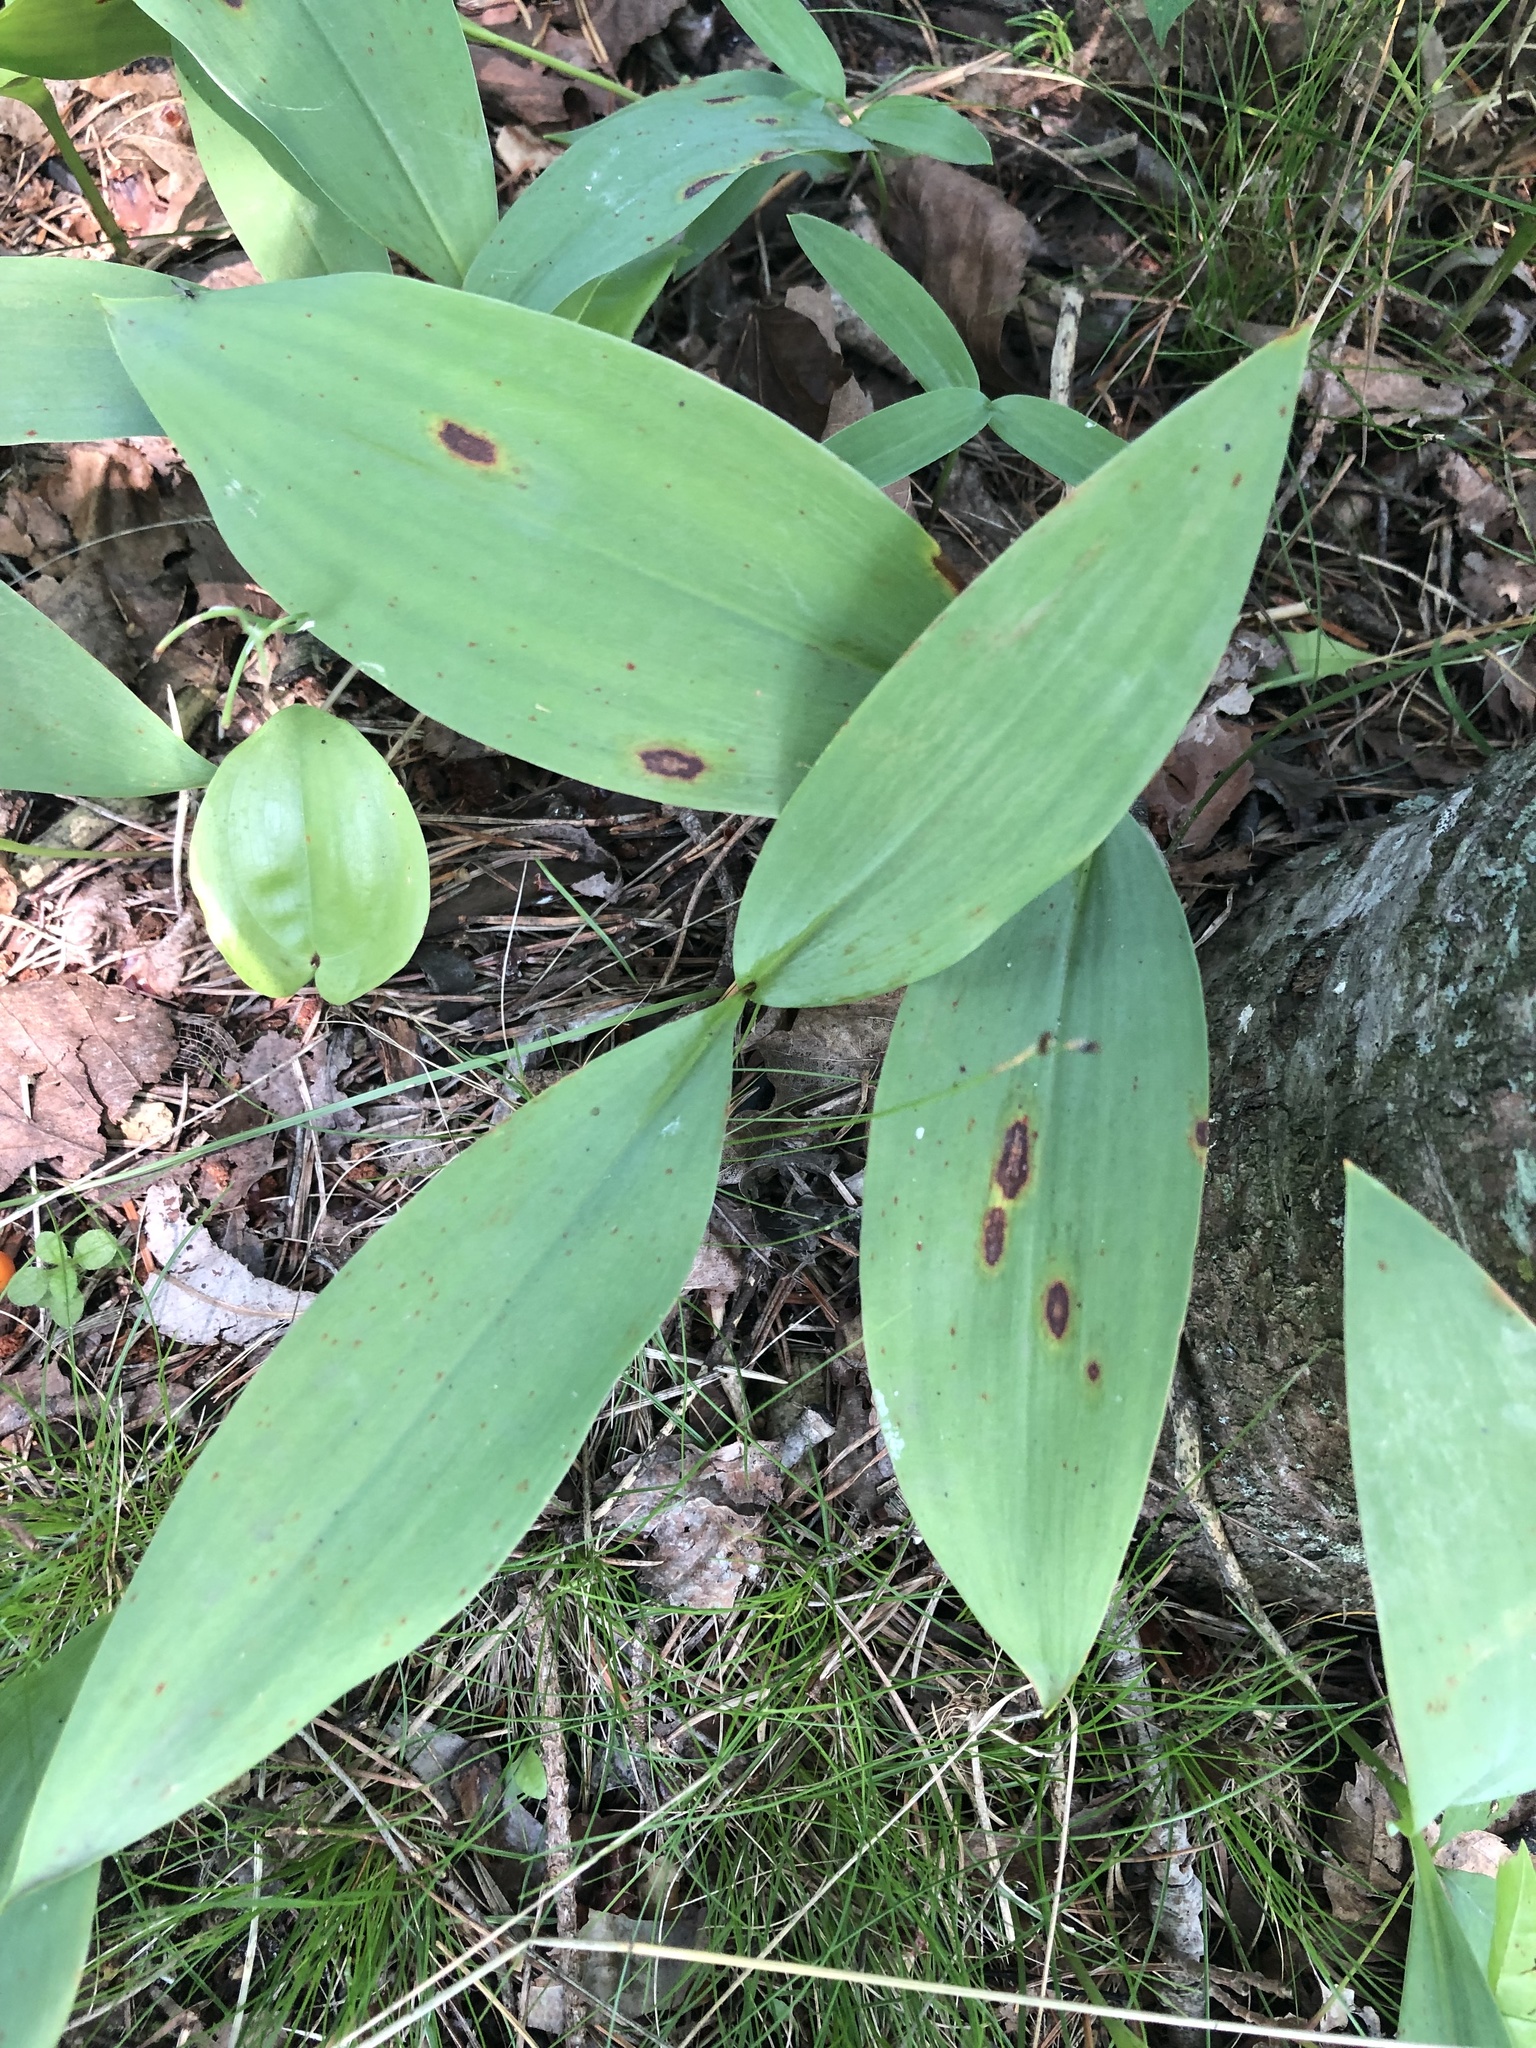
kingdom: Plantae
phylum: Tracheophyta
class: Liliopsida
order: Asparagales
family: Asparagaceae
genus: Convallaria
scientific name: Convallaria majalis
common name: Lily-of-the-valley
